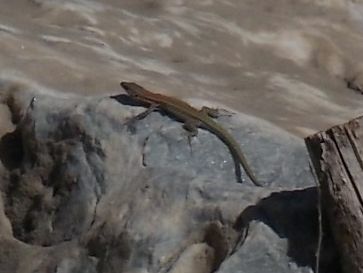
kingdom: Animalia
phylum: Chordata
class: Squamata
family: Lacertidae
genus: Podarcis
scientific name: Podarcis vaucheri
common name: Vaucher's wall lizard
